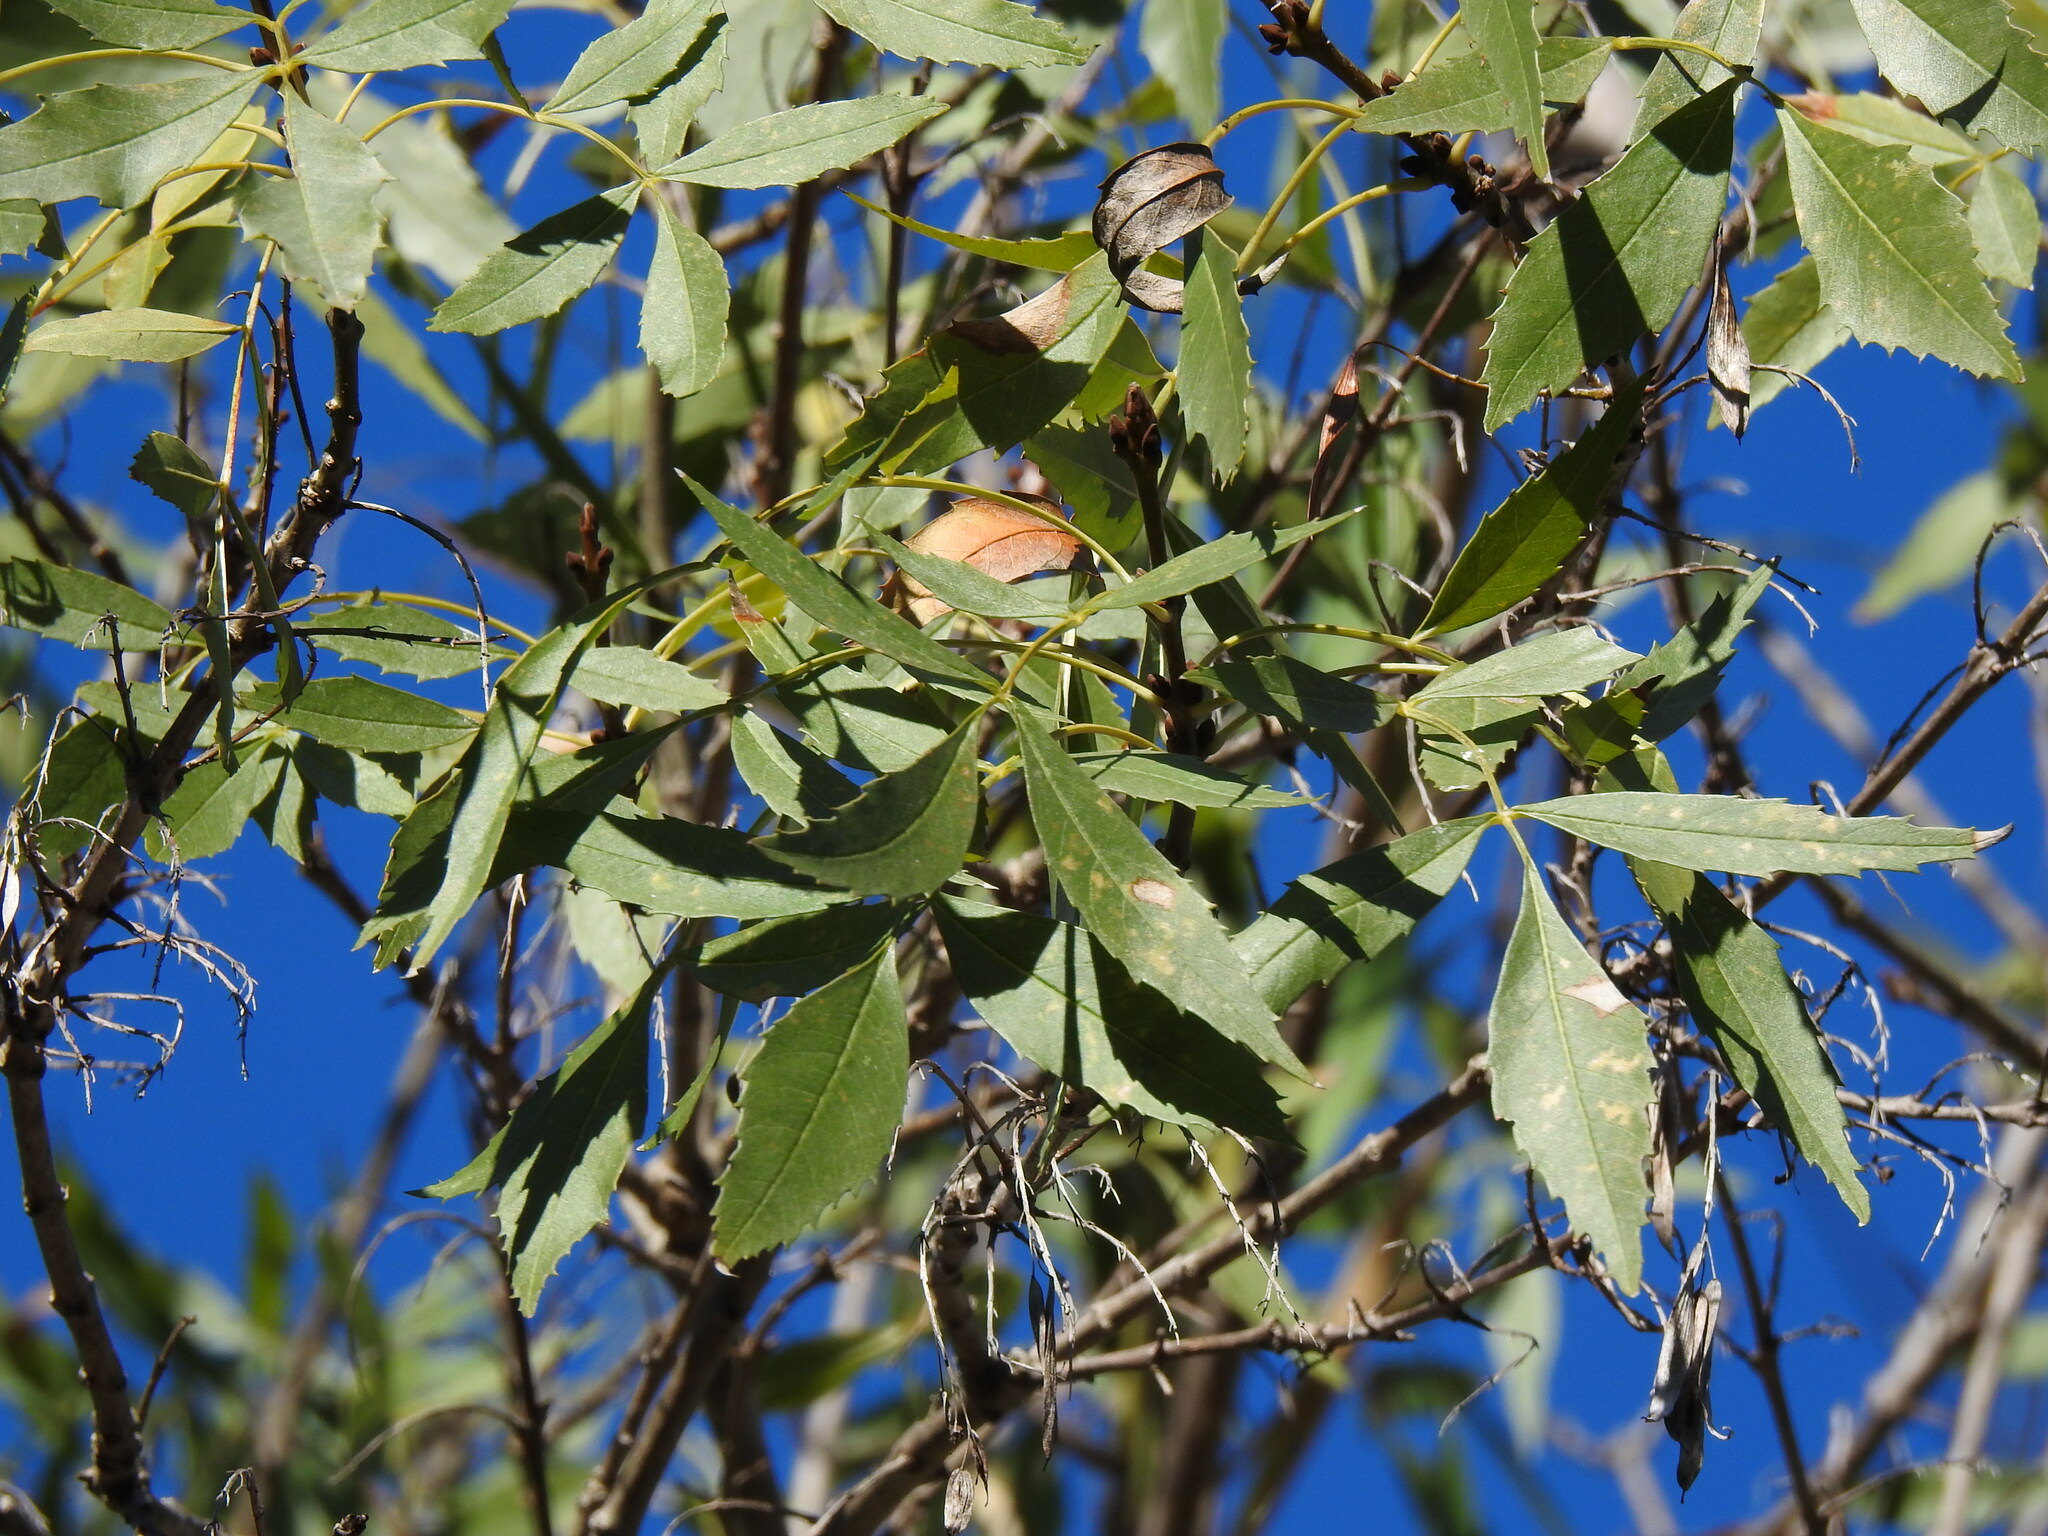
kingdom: Plantae
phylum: Tracheophyta
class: Magnoliopsida
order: Lamiales
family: Oleaceae
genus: Fraxinus
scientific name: Fraxinus angustifolia
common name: Narrow-leafed ash
